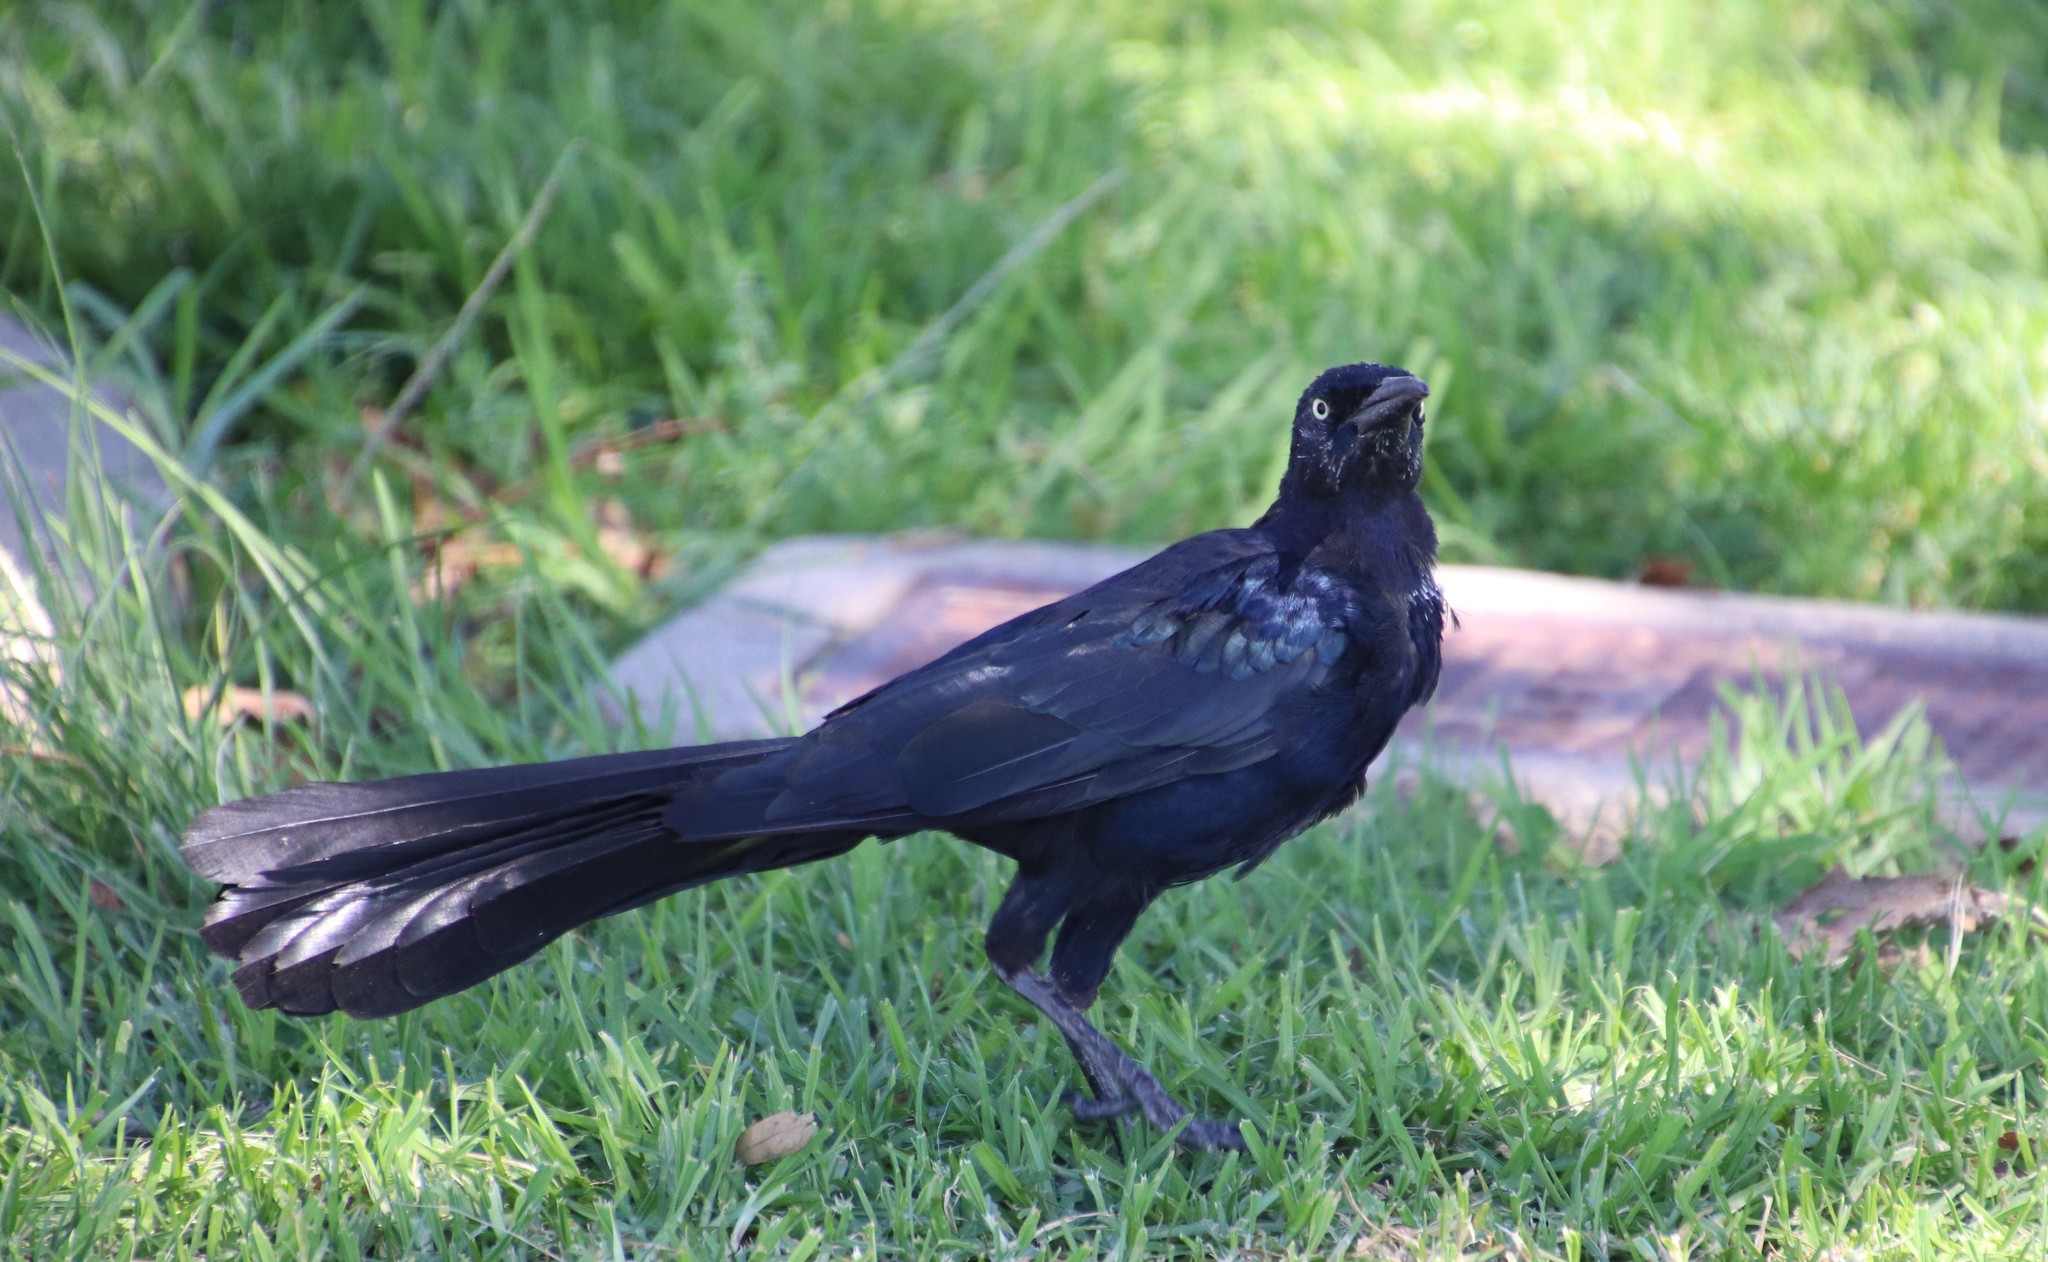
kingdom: Animalia
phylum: Chordata
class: Aves
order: Passeriformes
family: Icteridae
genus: Quiscalus
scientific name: Quiscalus mexicanus
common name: Great-tailed grackle
